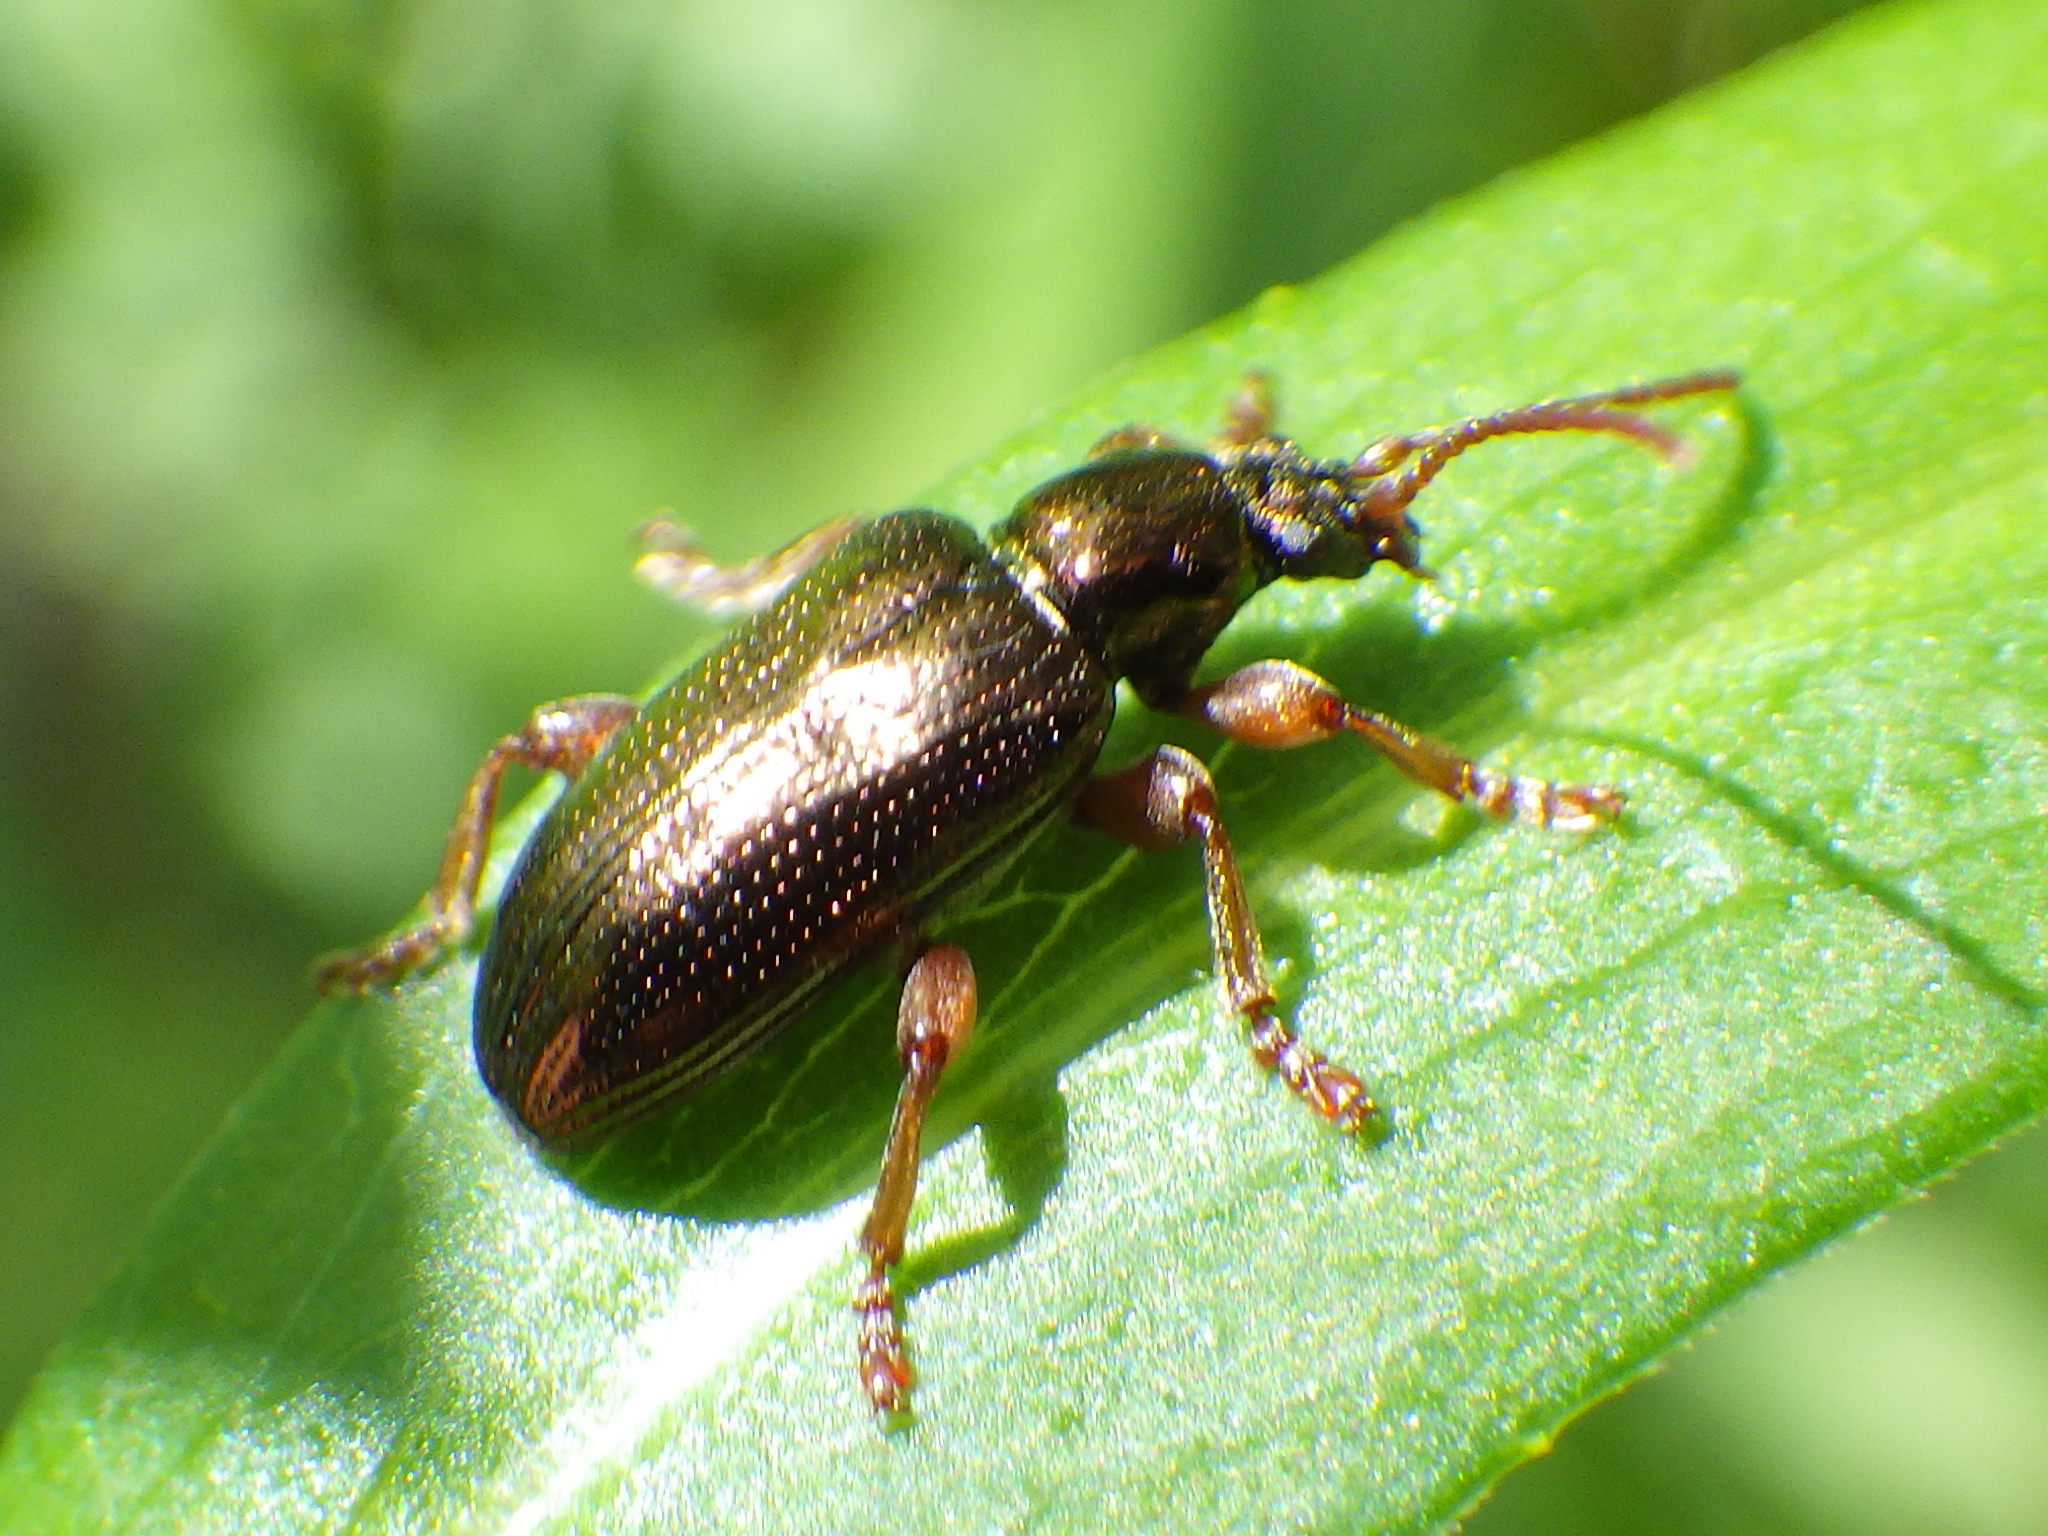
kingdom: Animalia
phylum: Arthropoda
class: Insecta
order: Coleoptera
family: Chrysomelidae
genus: Plateumaris
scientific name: Plateumaris rufa
